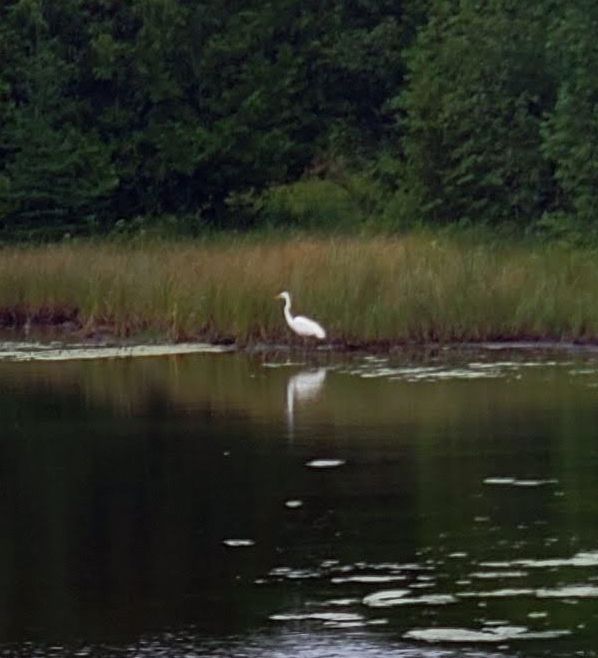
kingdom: Animalia
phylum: Chordata
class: Aves
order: Pelecaniformes
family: Ardeidae
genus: Ardea
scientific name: Ardea alba
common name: Great egret
